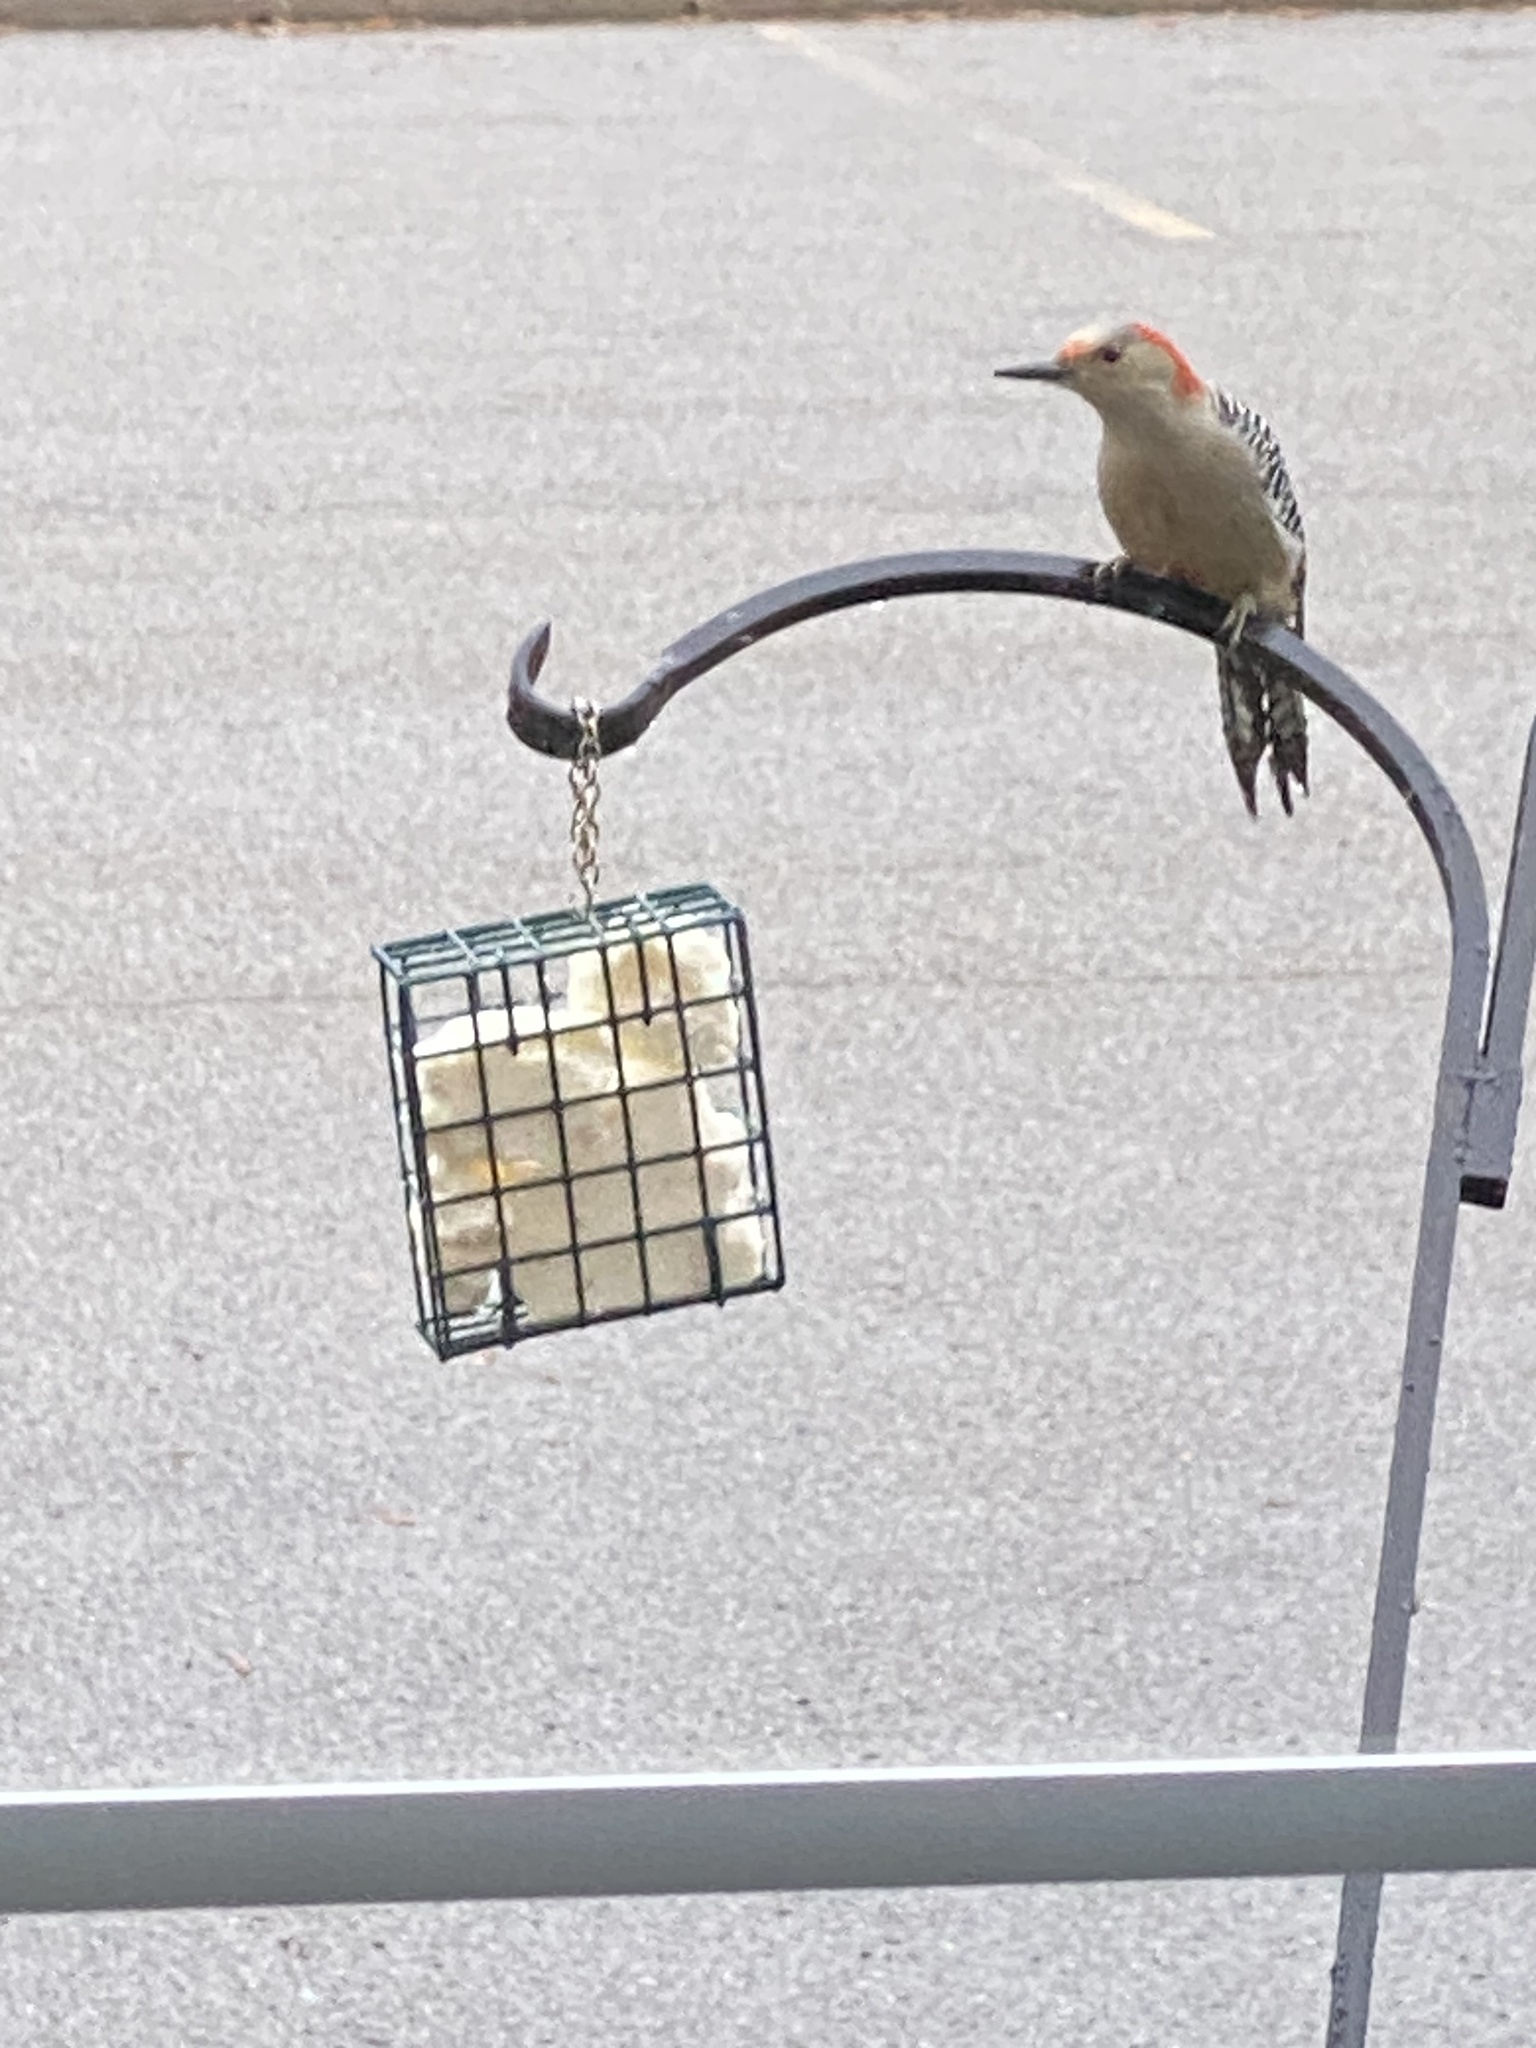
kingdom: Animalia
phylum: Chordata
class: Aves
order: Piciformes
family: Picidae
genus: Melanerpes
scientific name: Melanerpes carolinus
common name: Red-bellied woodpecker
